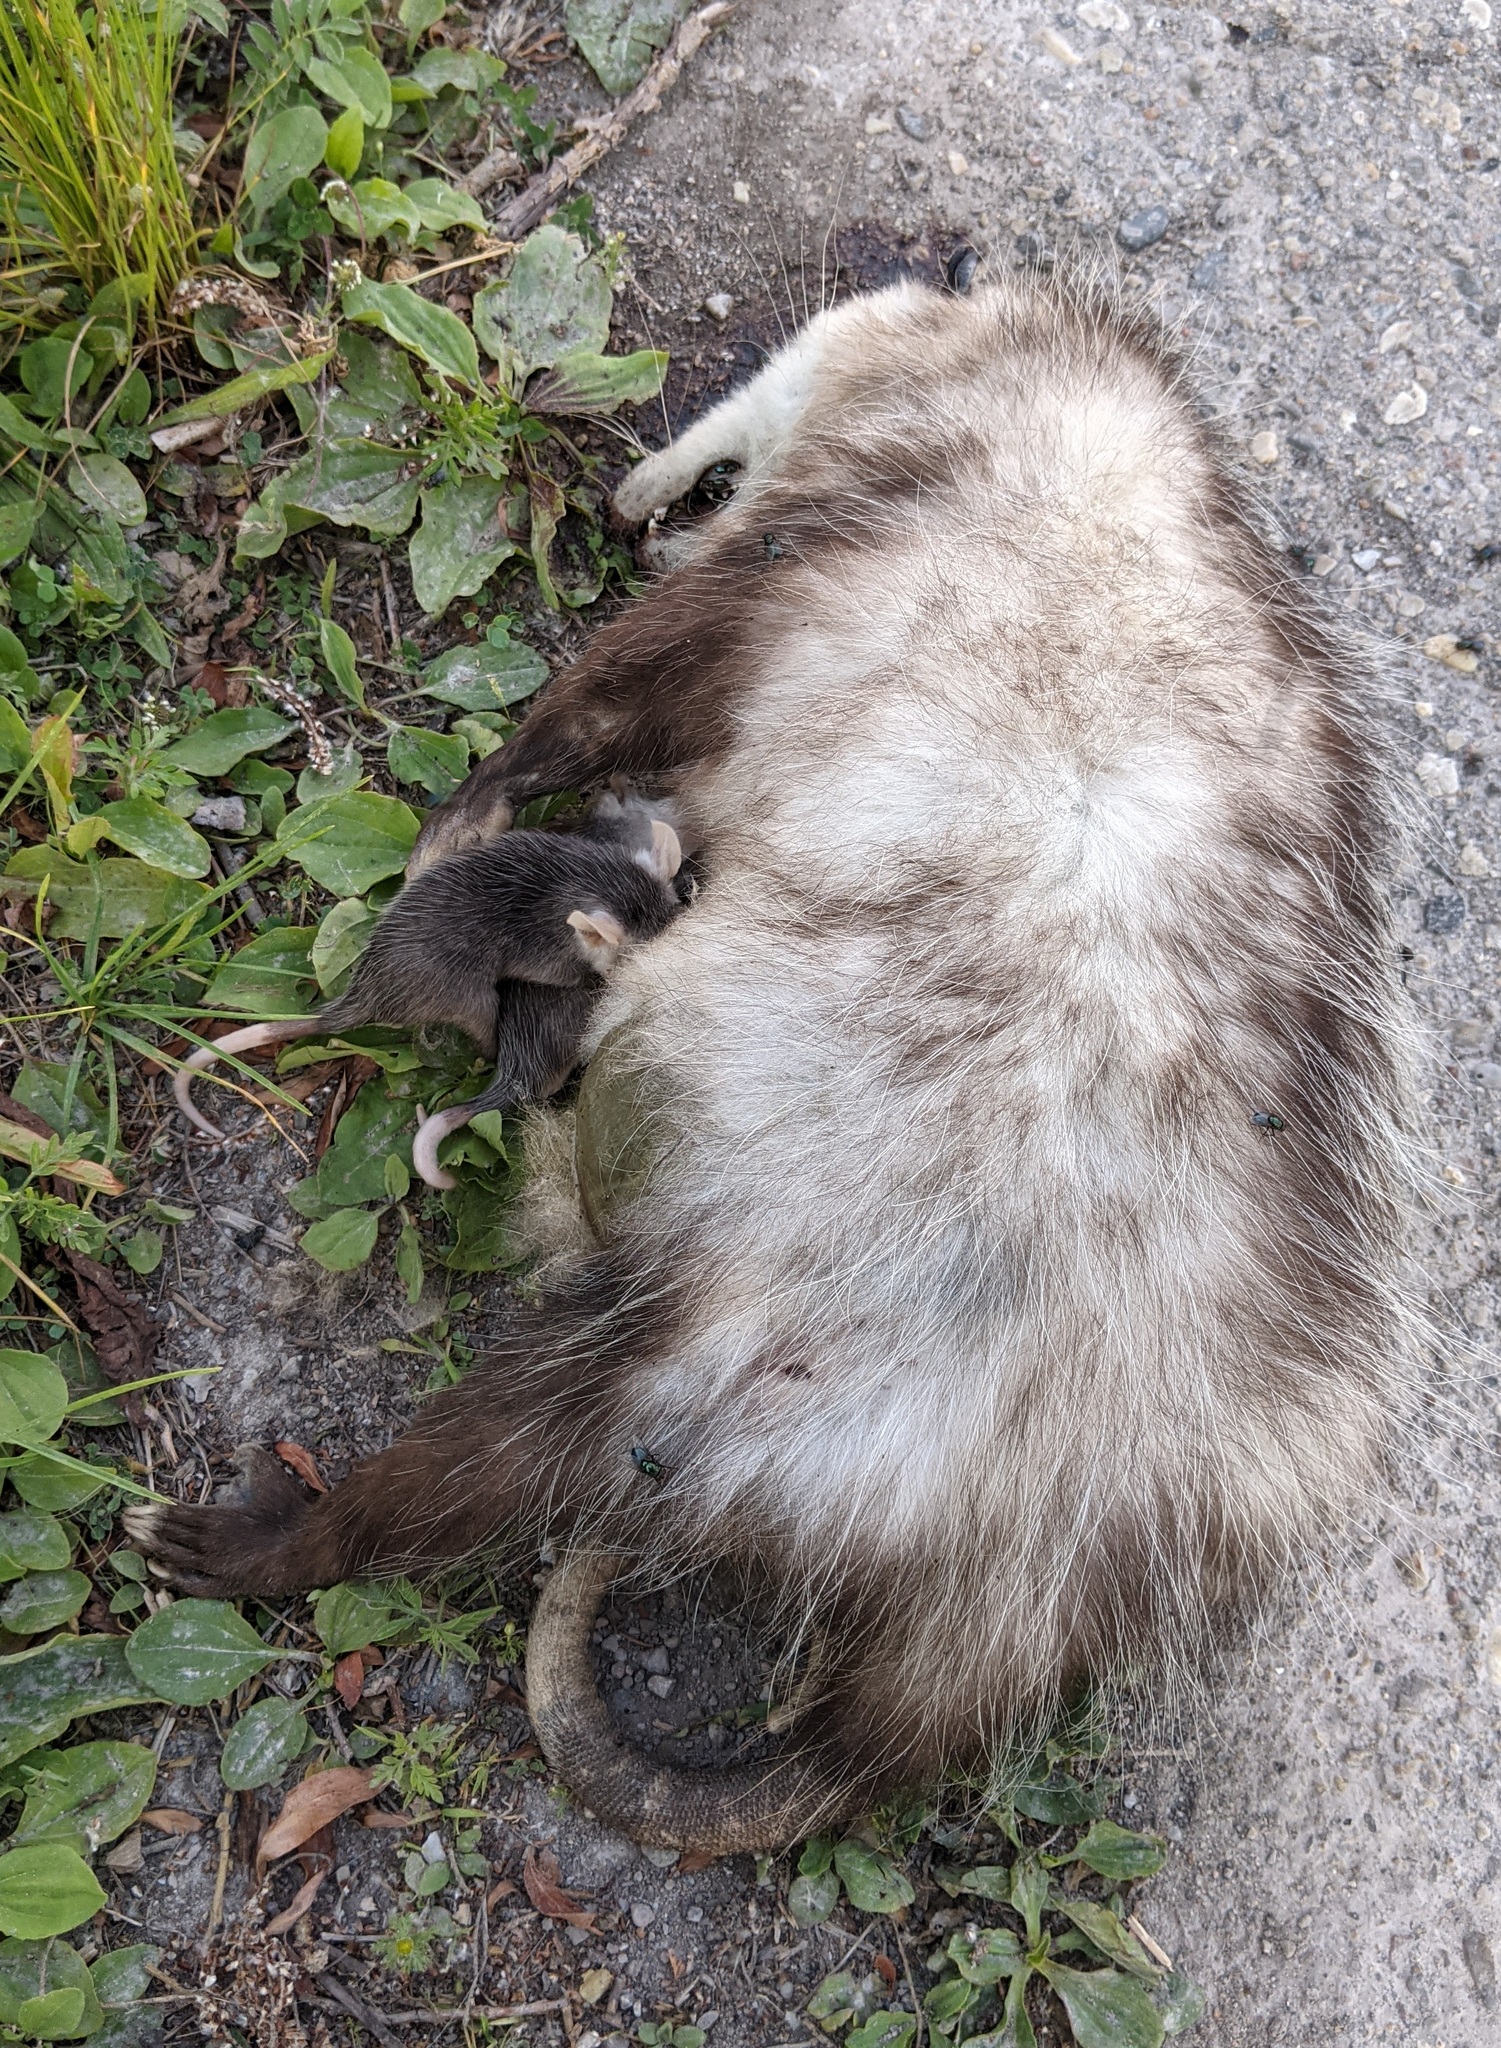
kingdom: Animalia
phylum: Chordata
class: Mammalia
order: Didelphimorphia
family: Didelphidae
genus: Didelphis
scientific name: Didelphis virginiana
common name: Virginia opossum
